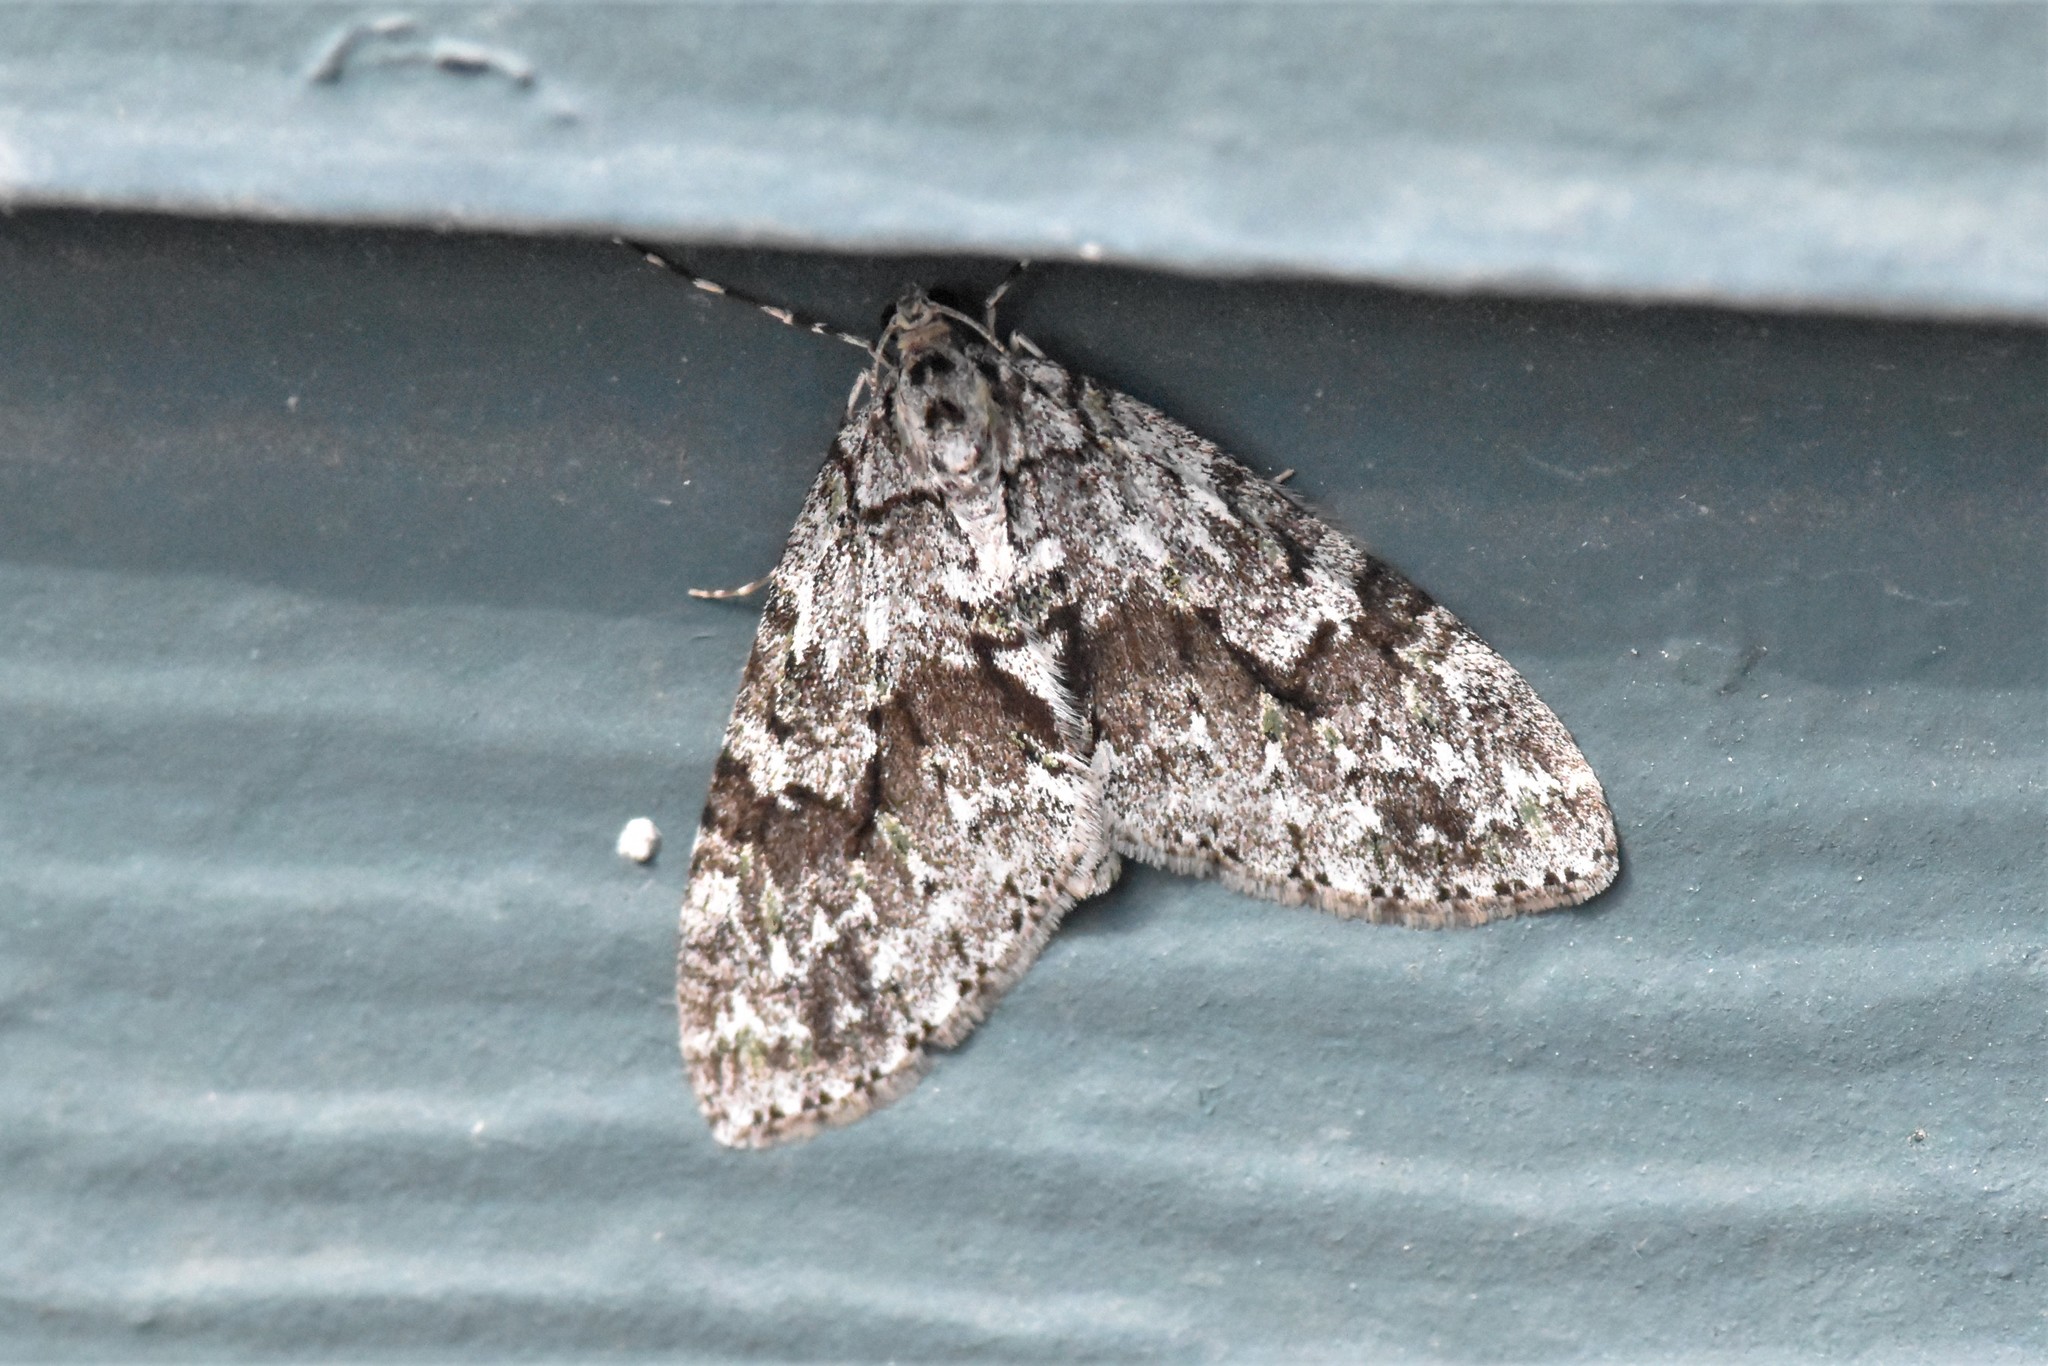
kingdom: Animalia
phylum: Arthropoda
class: Insecta
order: Lepidoptera
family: Geometridae
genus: Cladara
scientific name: Cladara limitaria
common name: Mottled gray carpet
